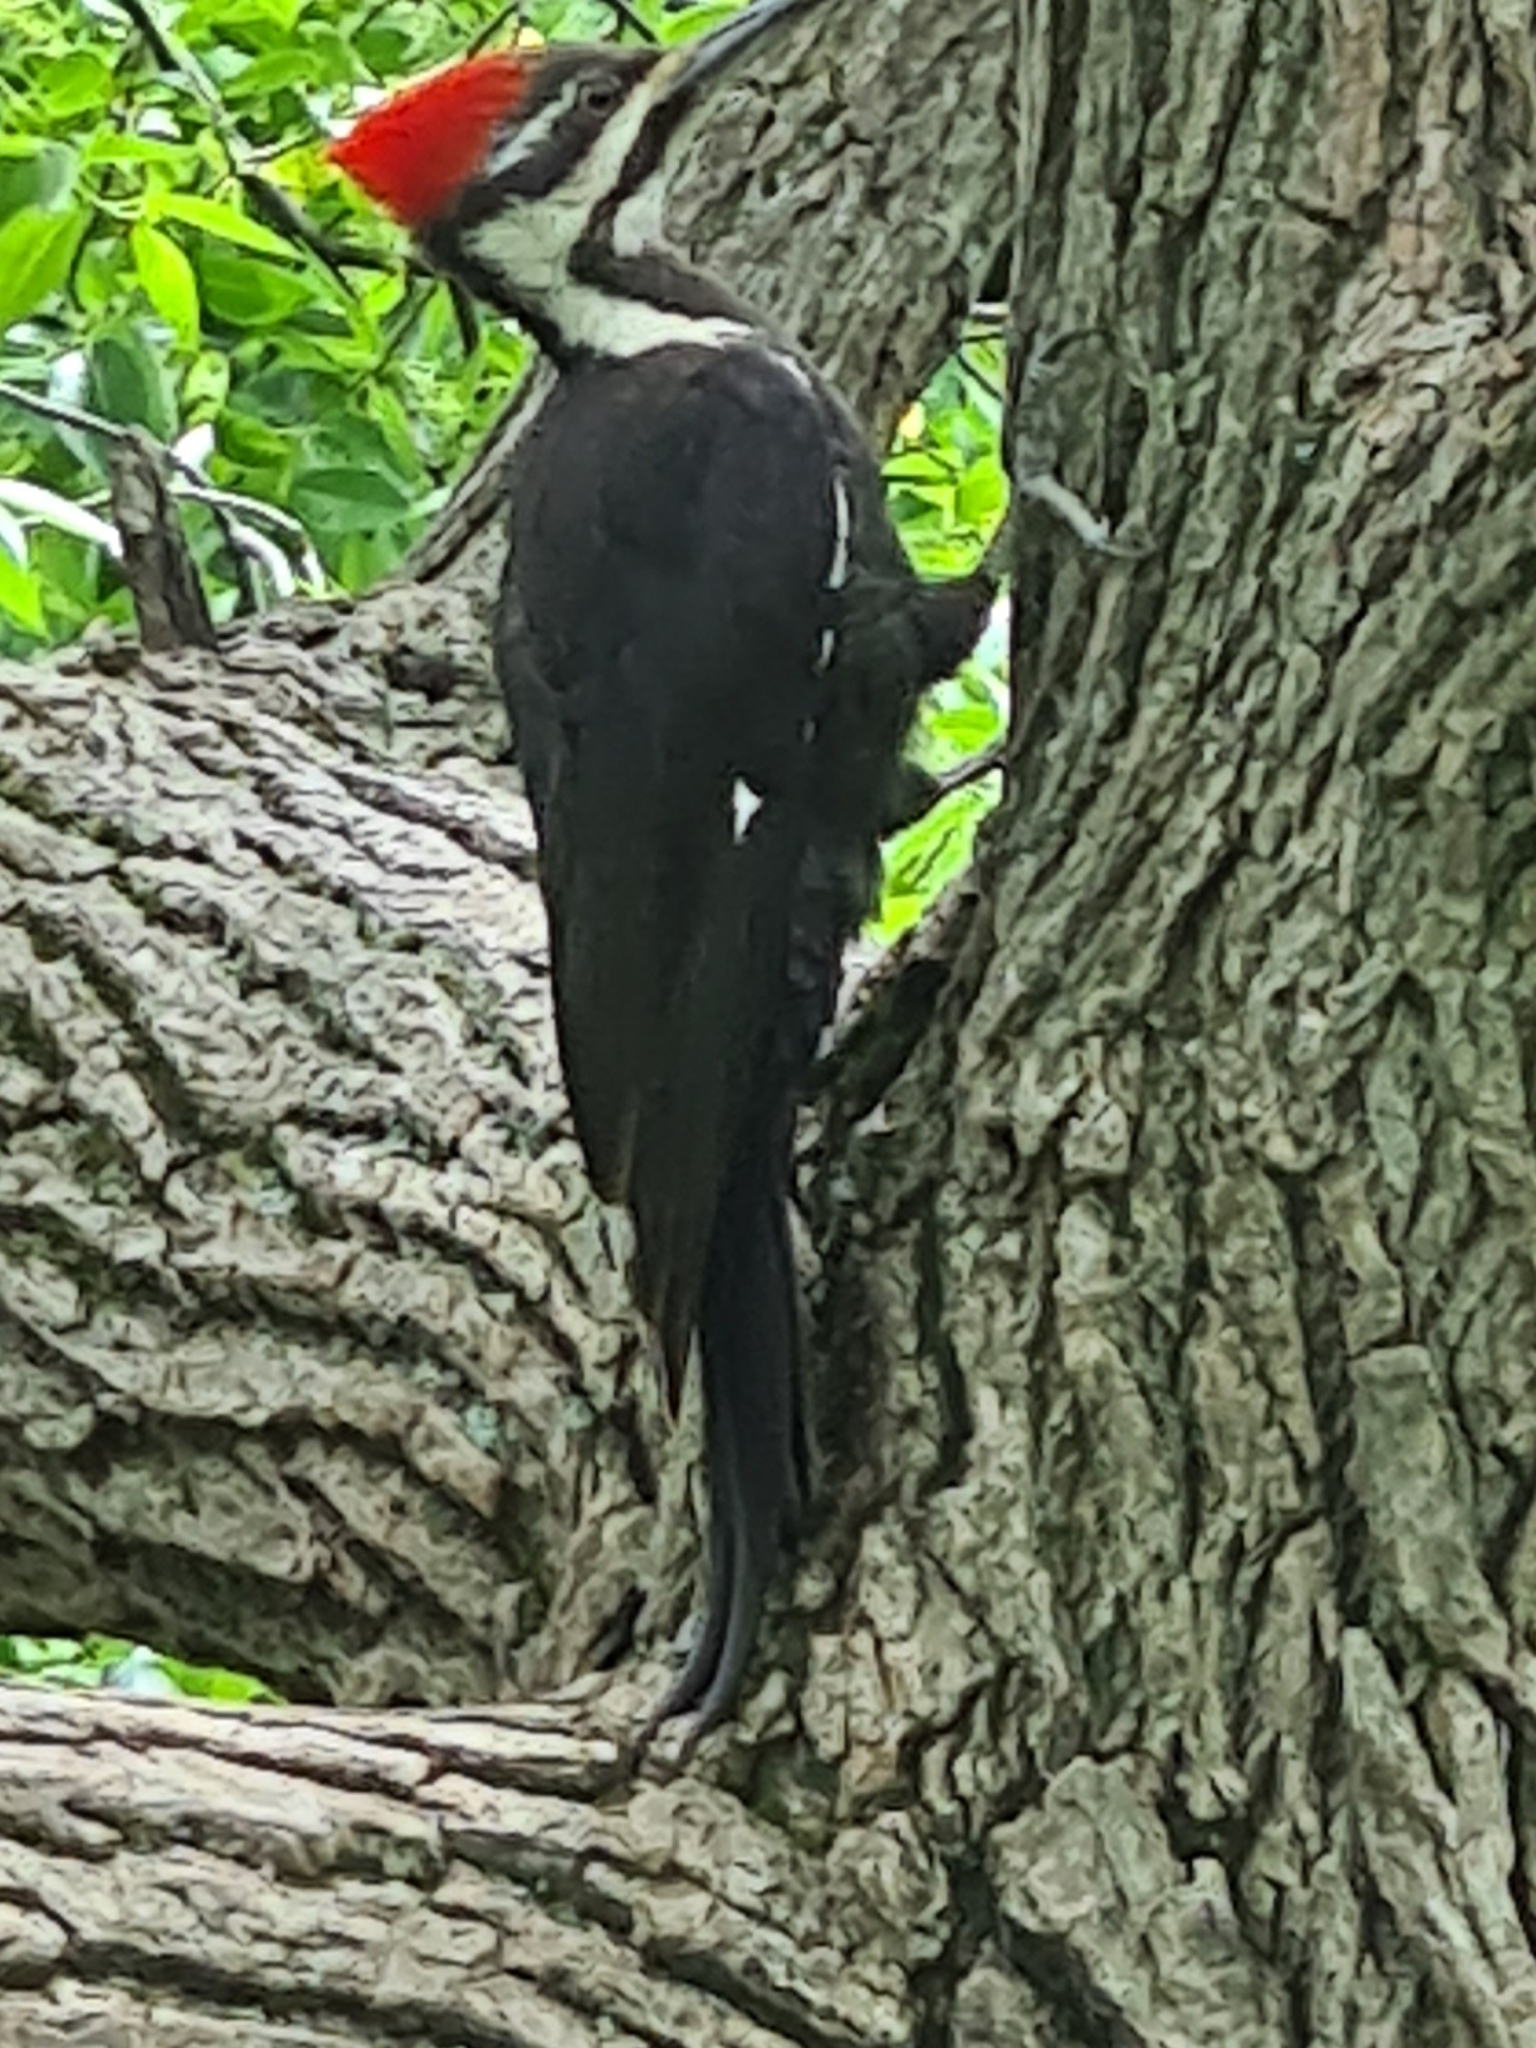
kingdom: Animalia
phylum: Chordata
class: Aves
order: Piciformes
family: Picidae
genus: Dryocopus
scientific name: Dryocopus pileatus
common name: Pileated woodpecker
